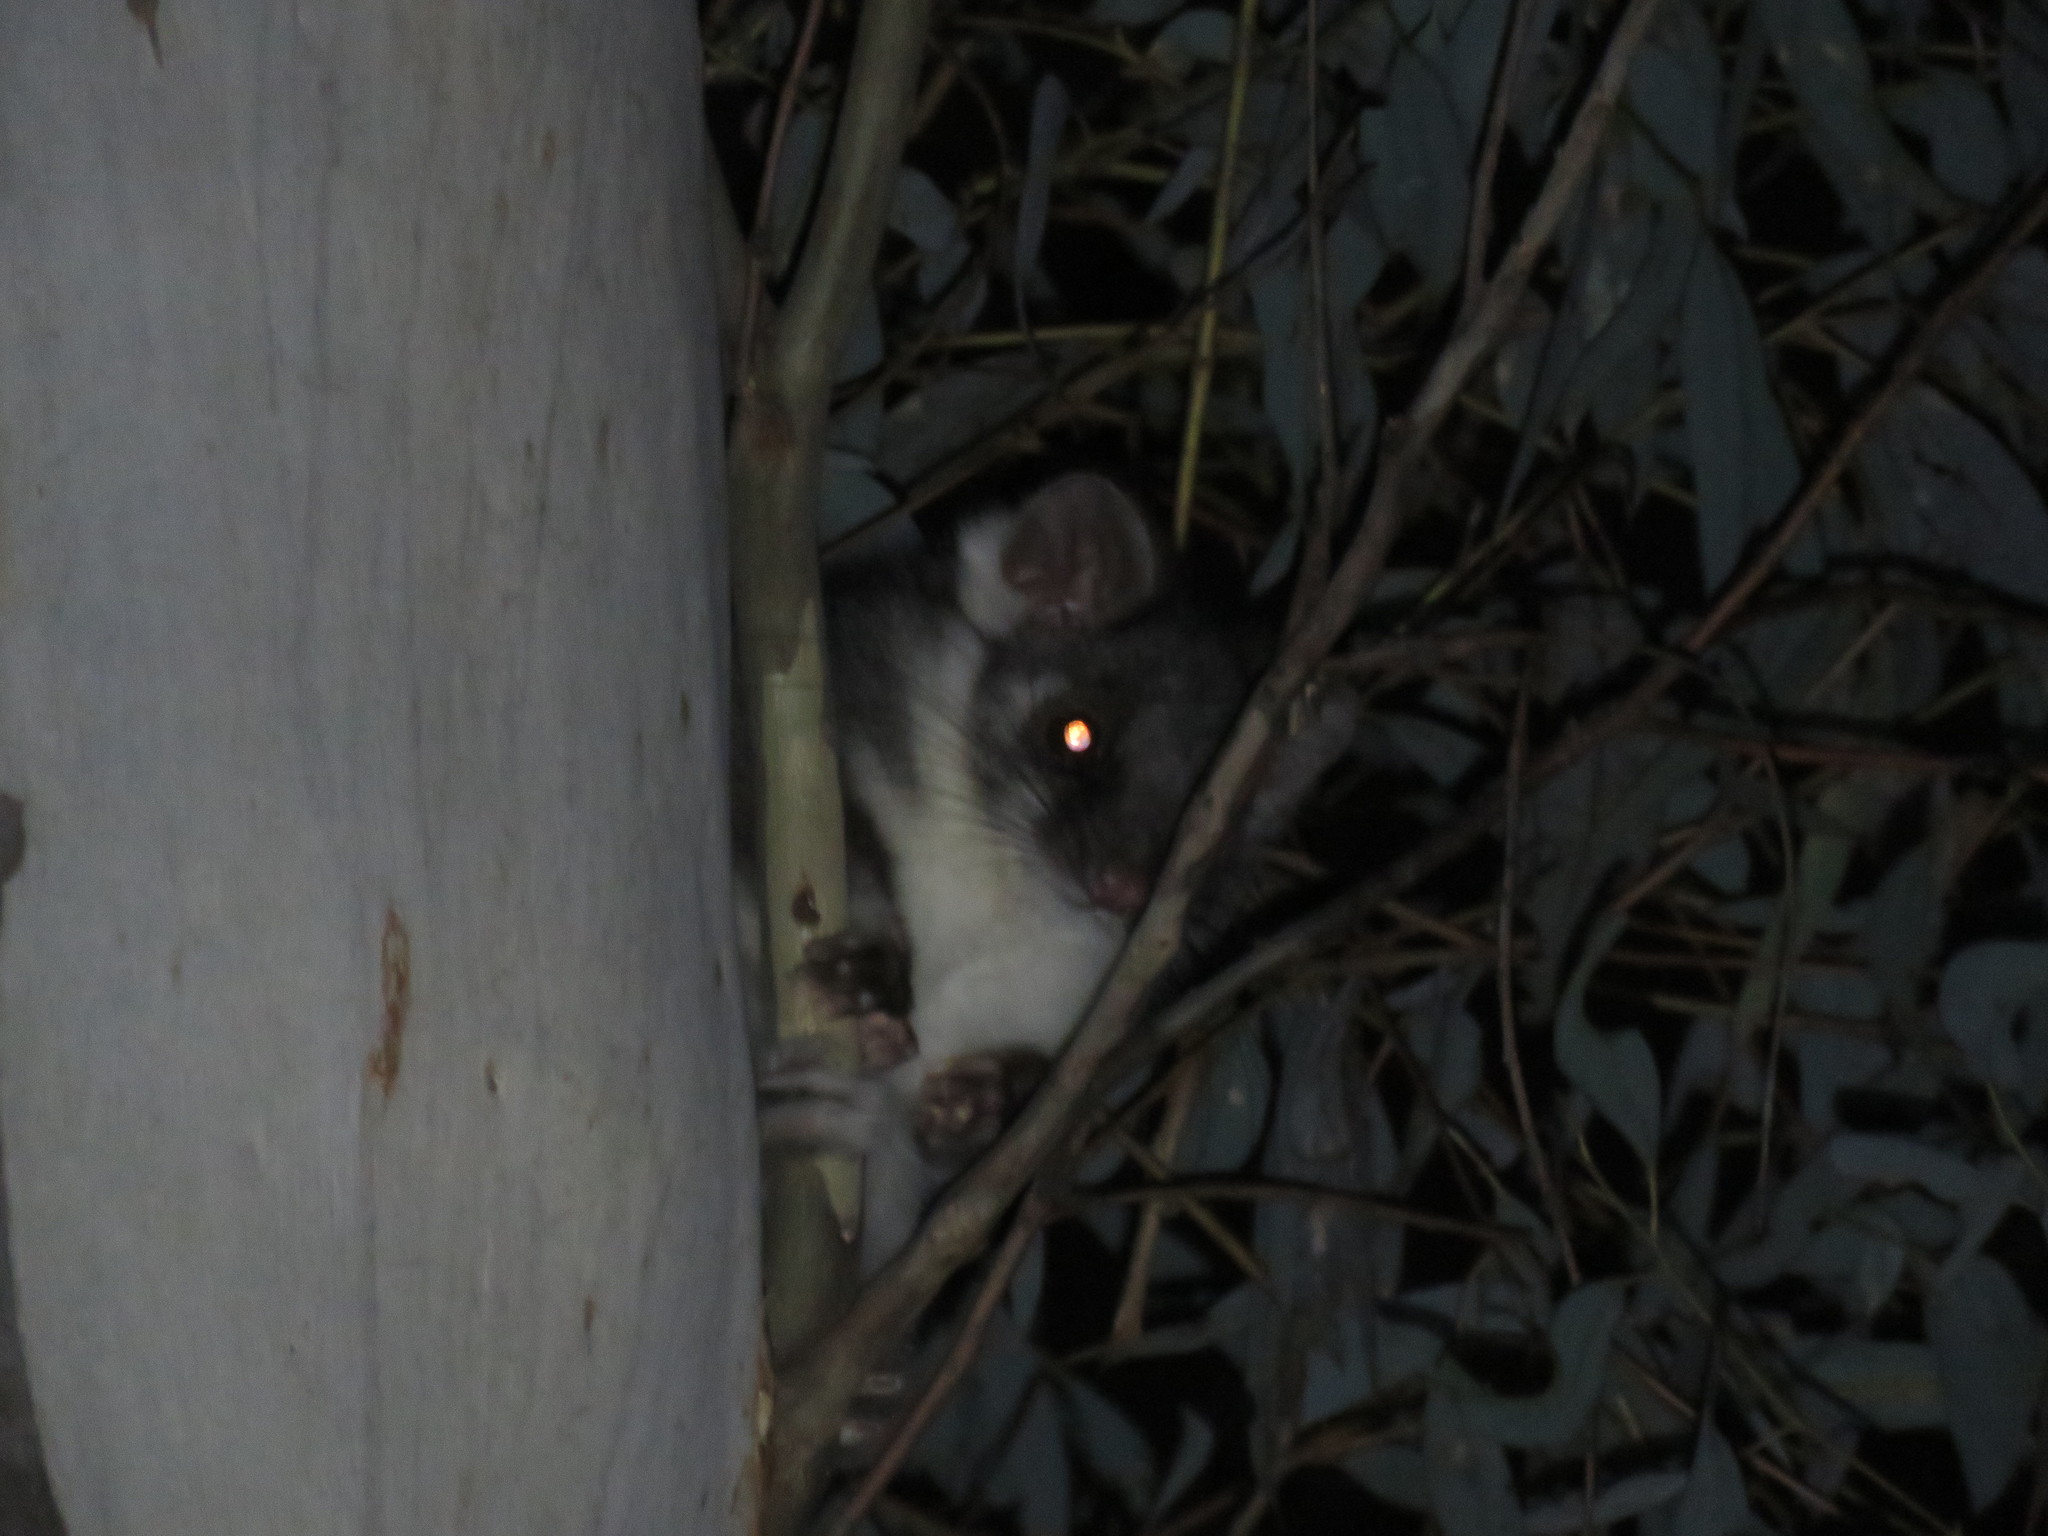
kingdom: Animalia
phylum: Chordata
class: Mammalia
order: Diprotodontia
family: Pseudocheiridae
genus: Pseudocheirus
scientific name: Pseudocheirus peregrinus
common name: Common ringtail possum
